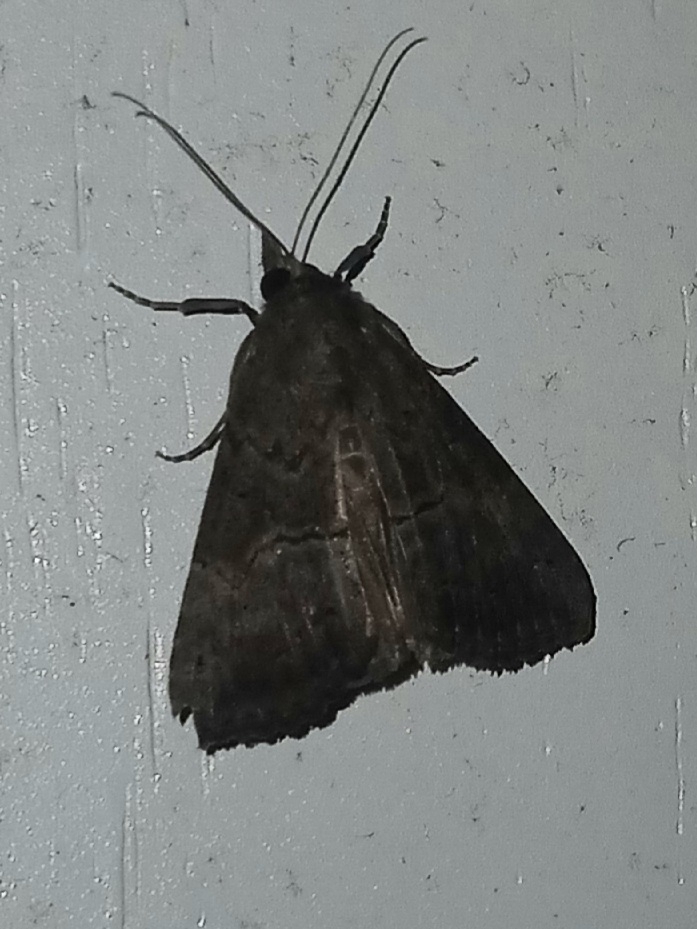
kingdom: Animalia
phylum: Arthropoda
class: Insecta
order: Lepidoptera
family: Erebidae
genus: Hypena
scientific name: Hypena scabra
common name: Green cloverworm
